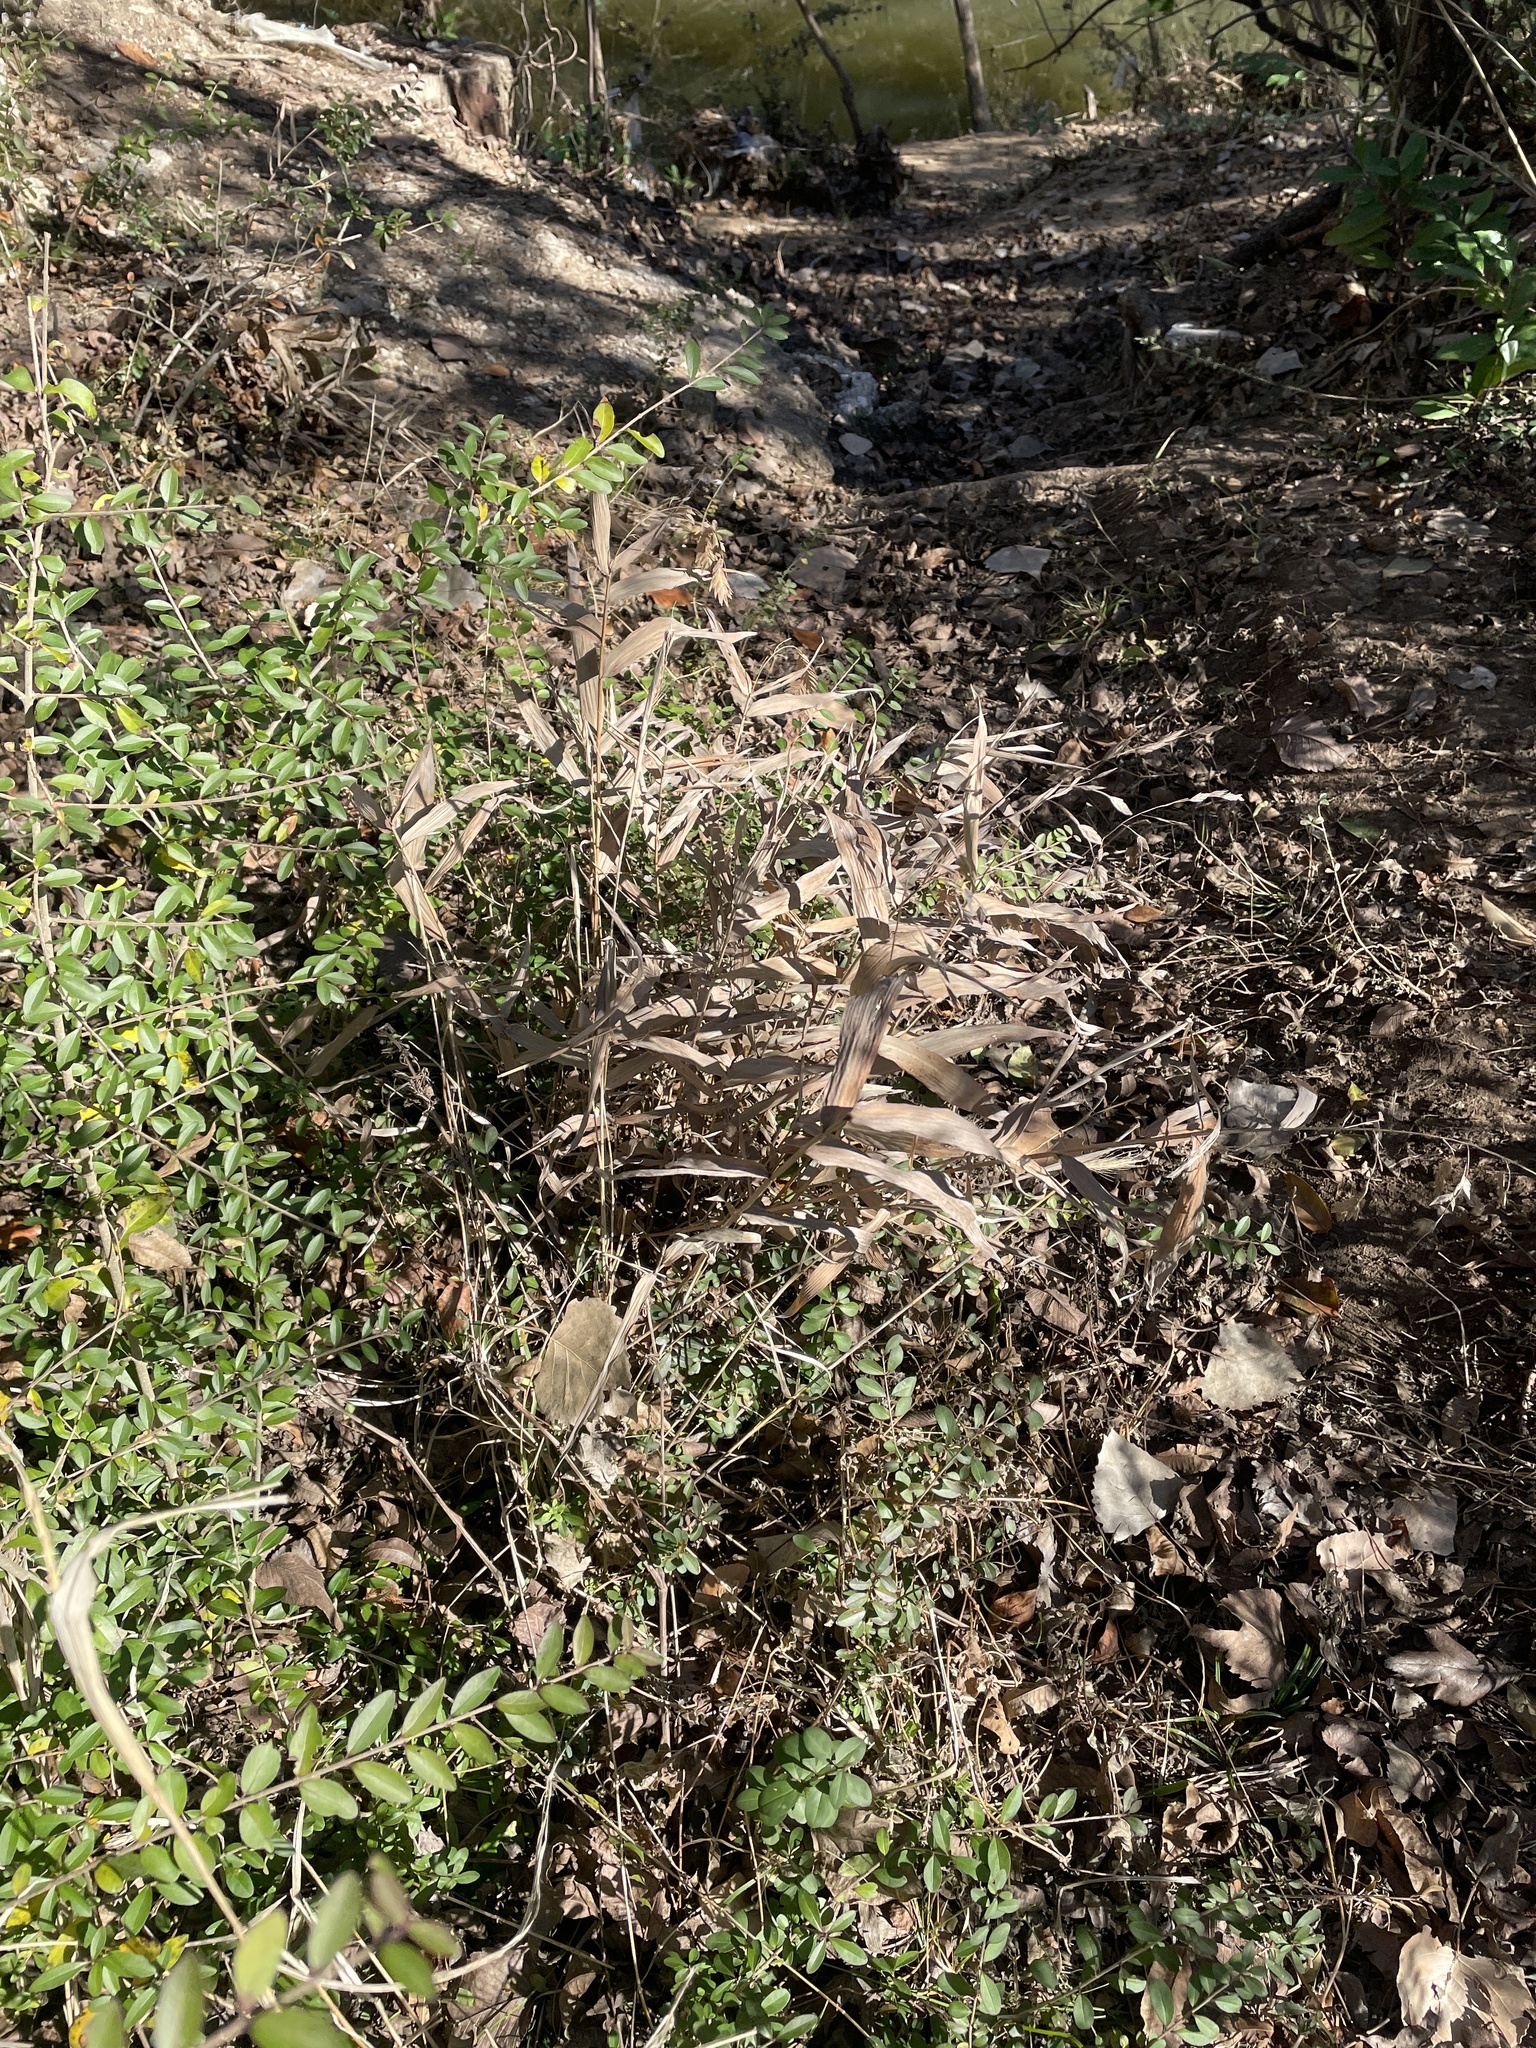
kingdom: Plantae
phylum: Tracheophyta
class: Liliopsida
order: Poales
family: Poaceae
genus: Chasmanthium
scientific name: Chasmanthium latifolium
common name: Broad-leaved chasmanthium
